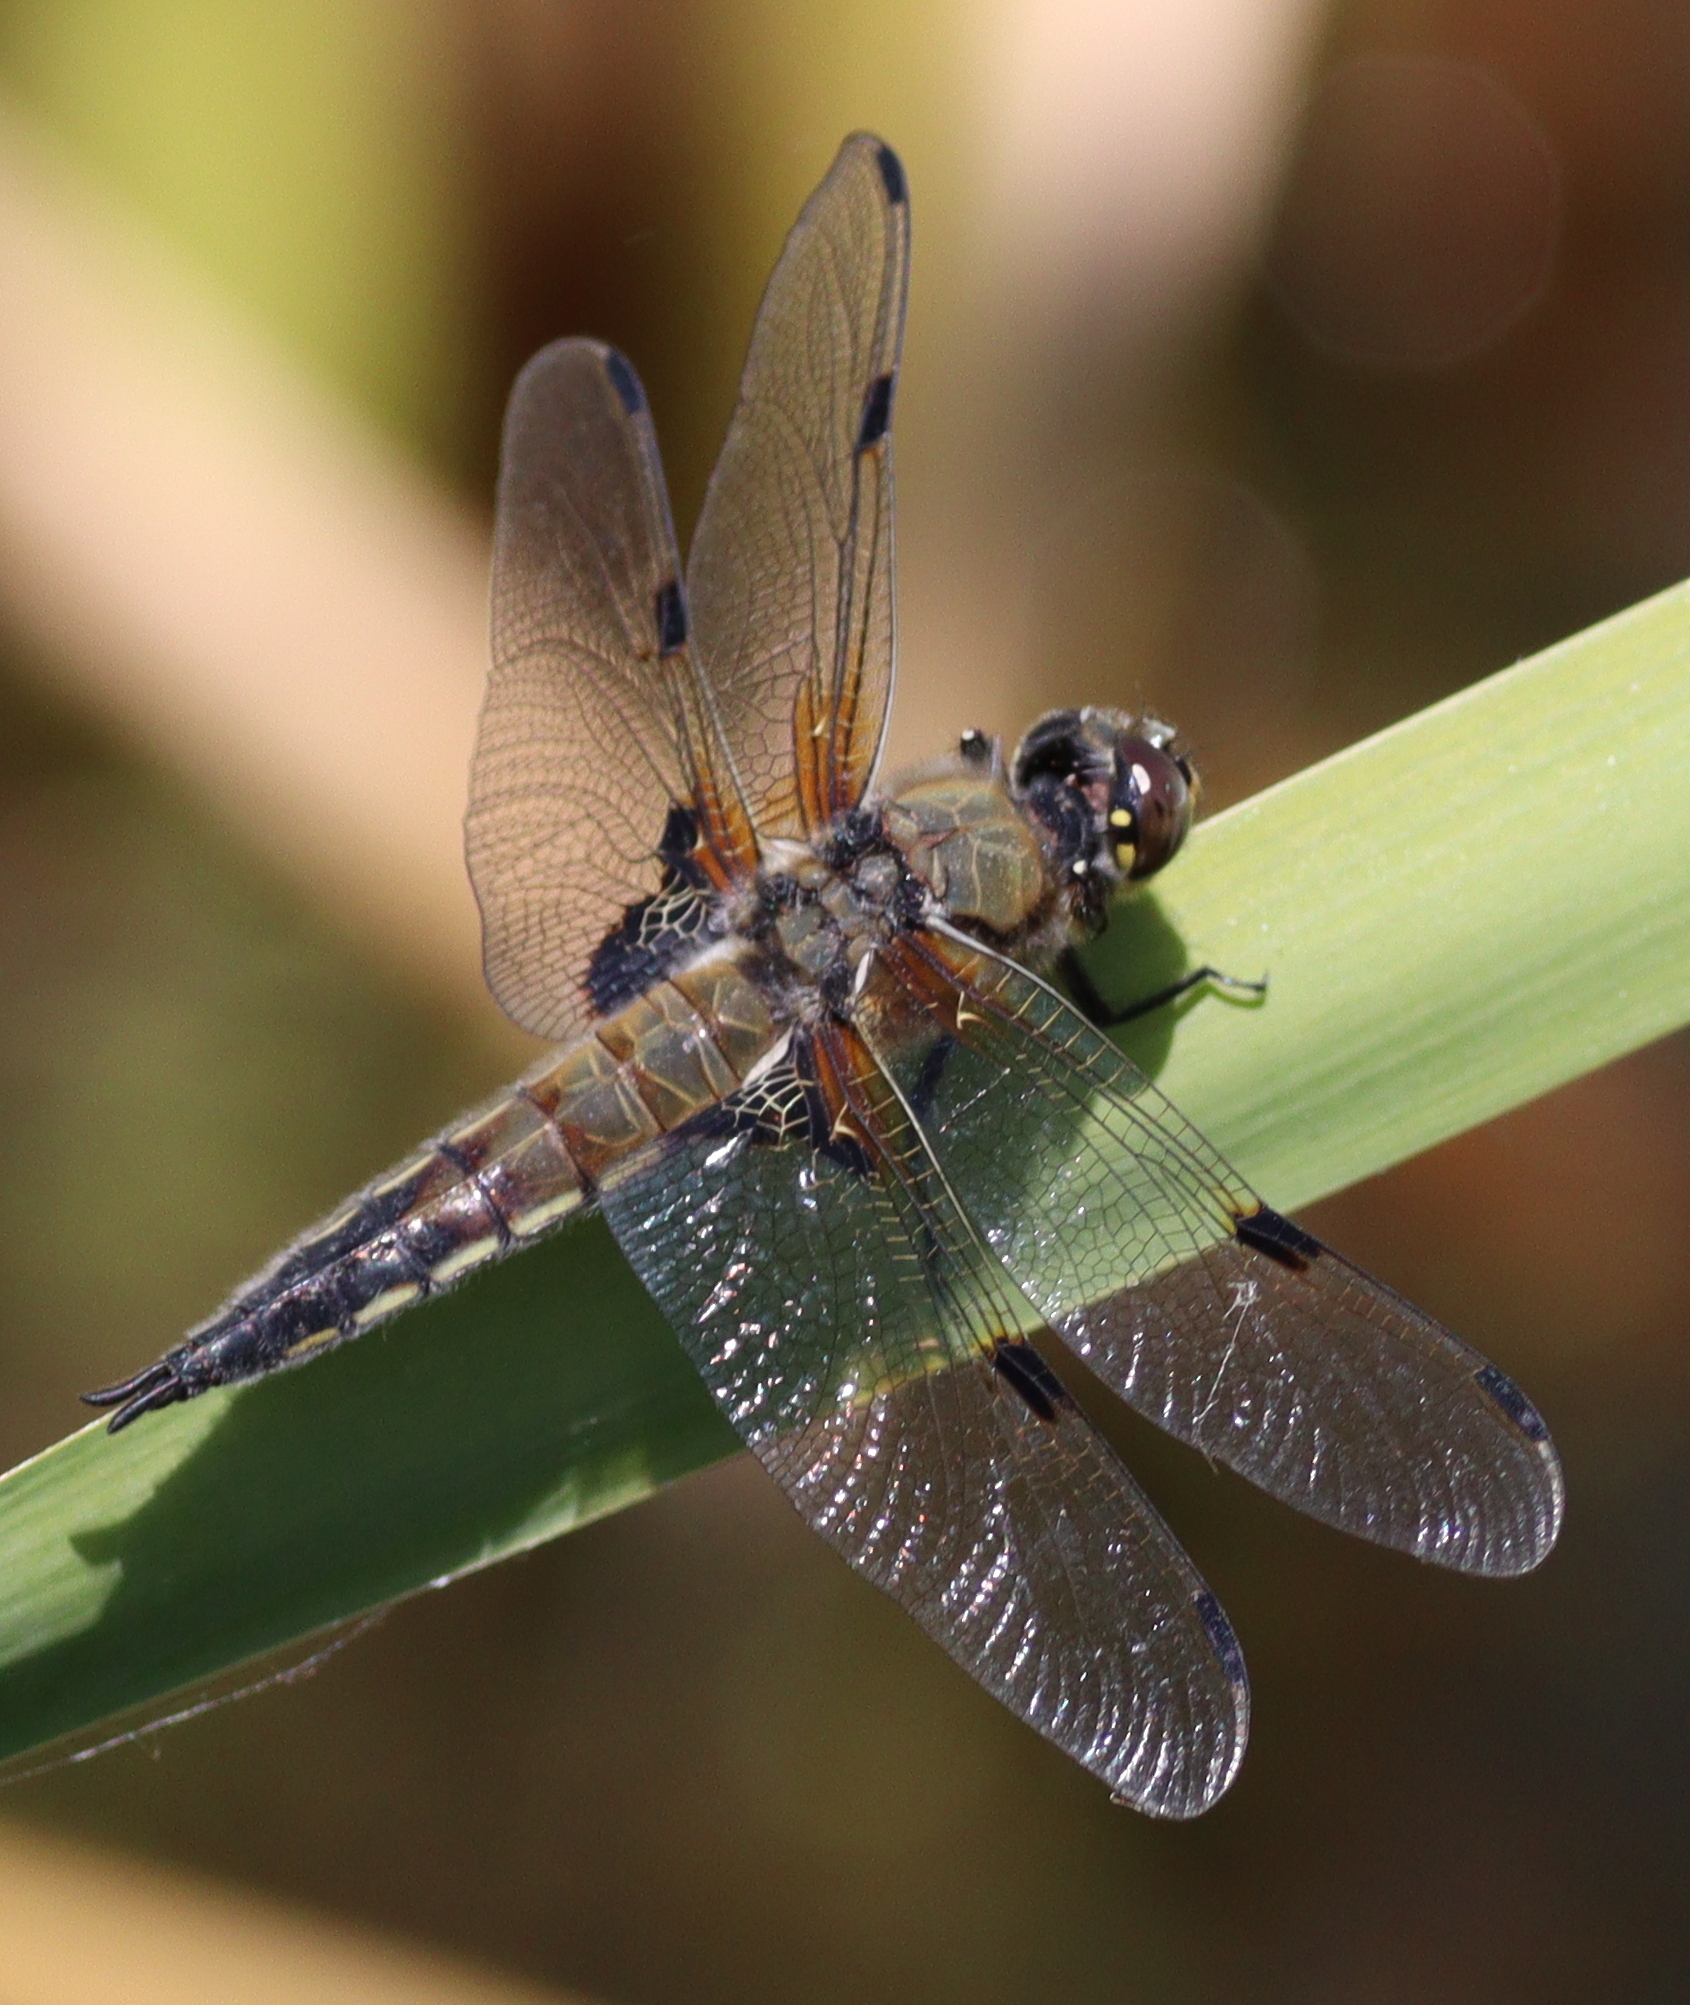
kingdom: Animalia
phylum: Arthropoda
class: Insecta
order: Odonata
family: Libellulidae
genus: Libellula
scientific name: Libellula quadrimaculata
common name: Four-spotted chaser
